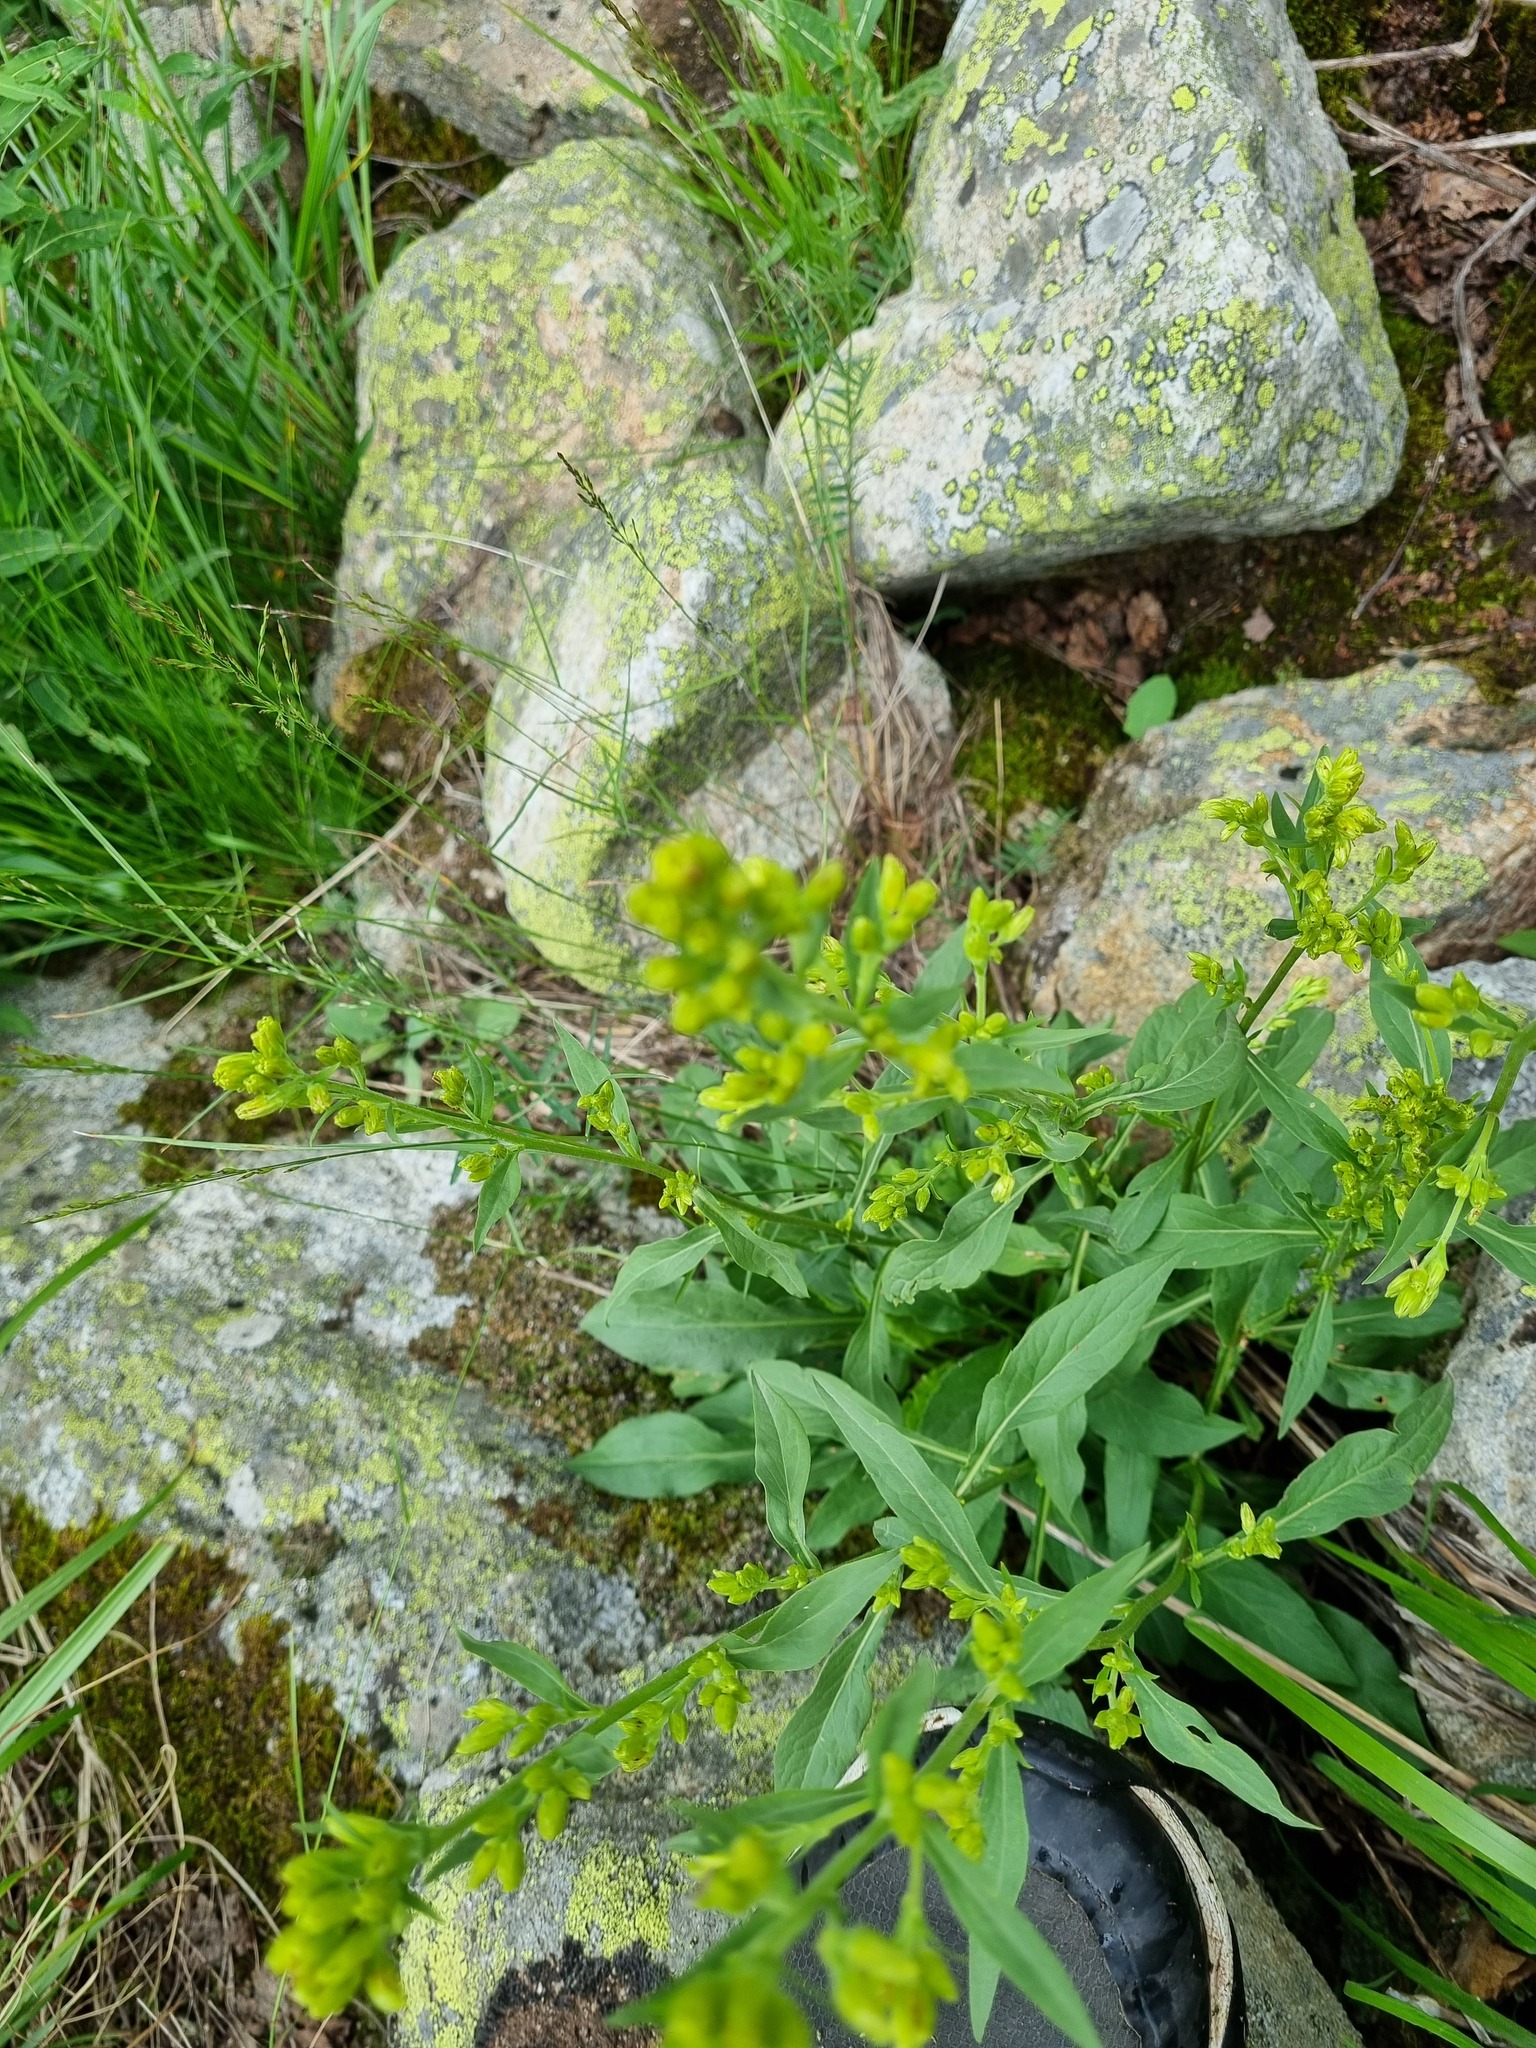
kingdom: Plantae
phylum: Tracheophyta
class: Magnoliopsida
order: Asterales
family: Asteraceae
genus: Solidago
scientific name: Solidago virgaurea
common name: Goldenrod
